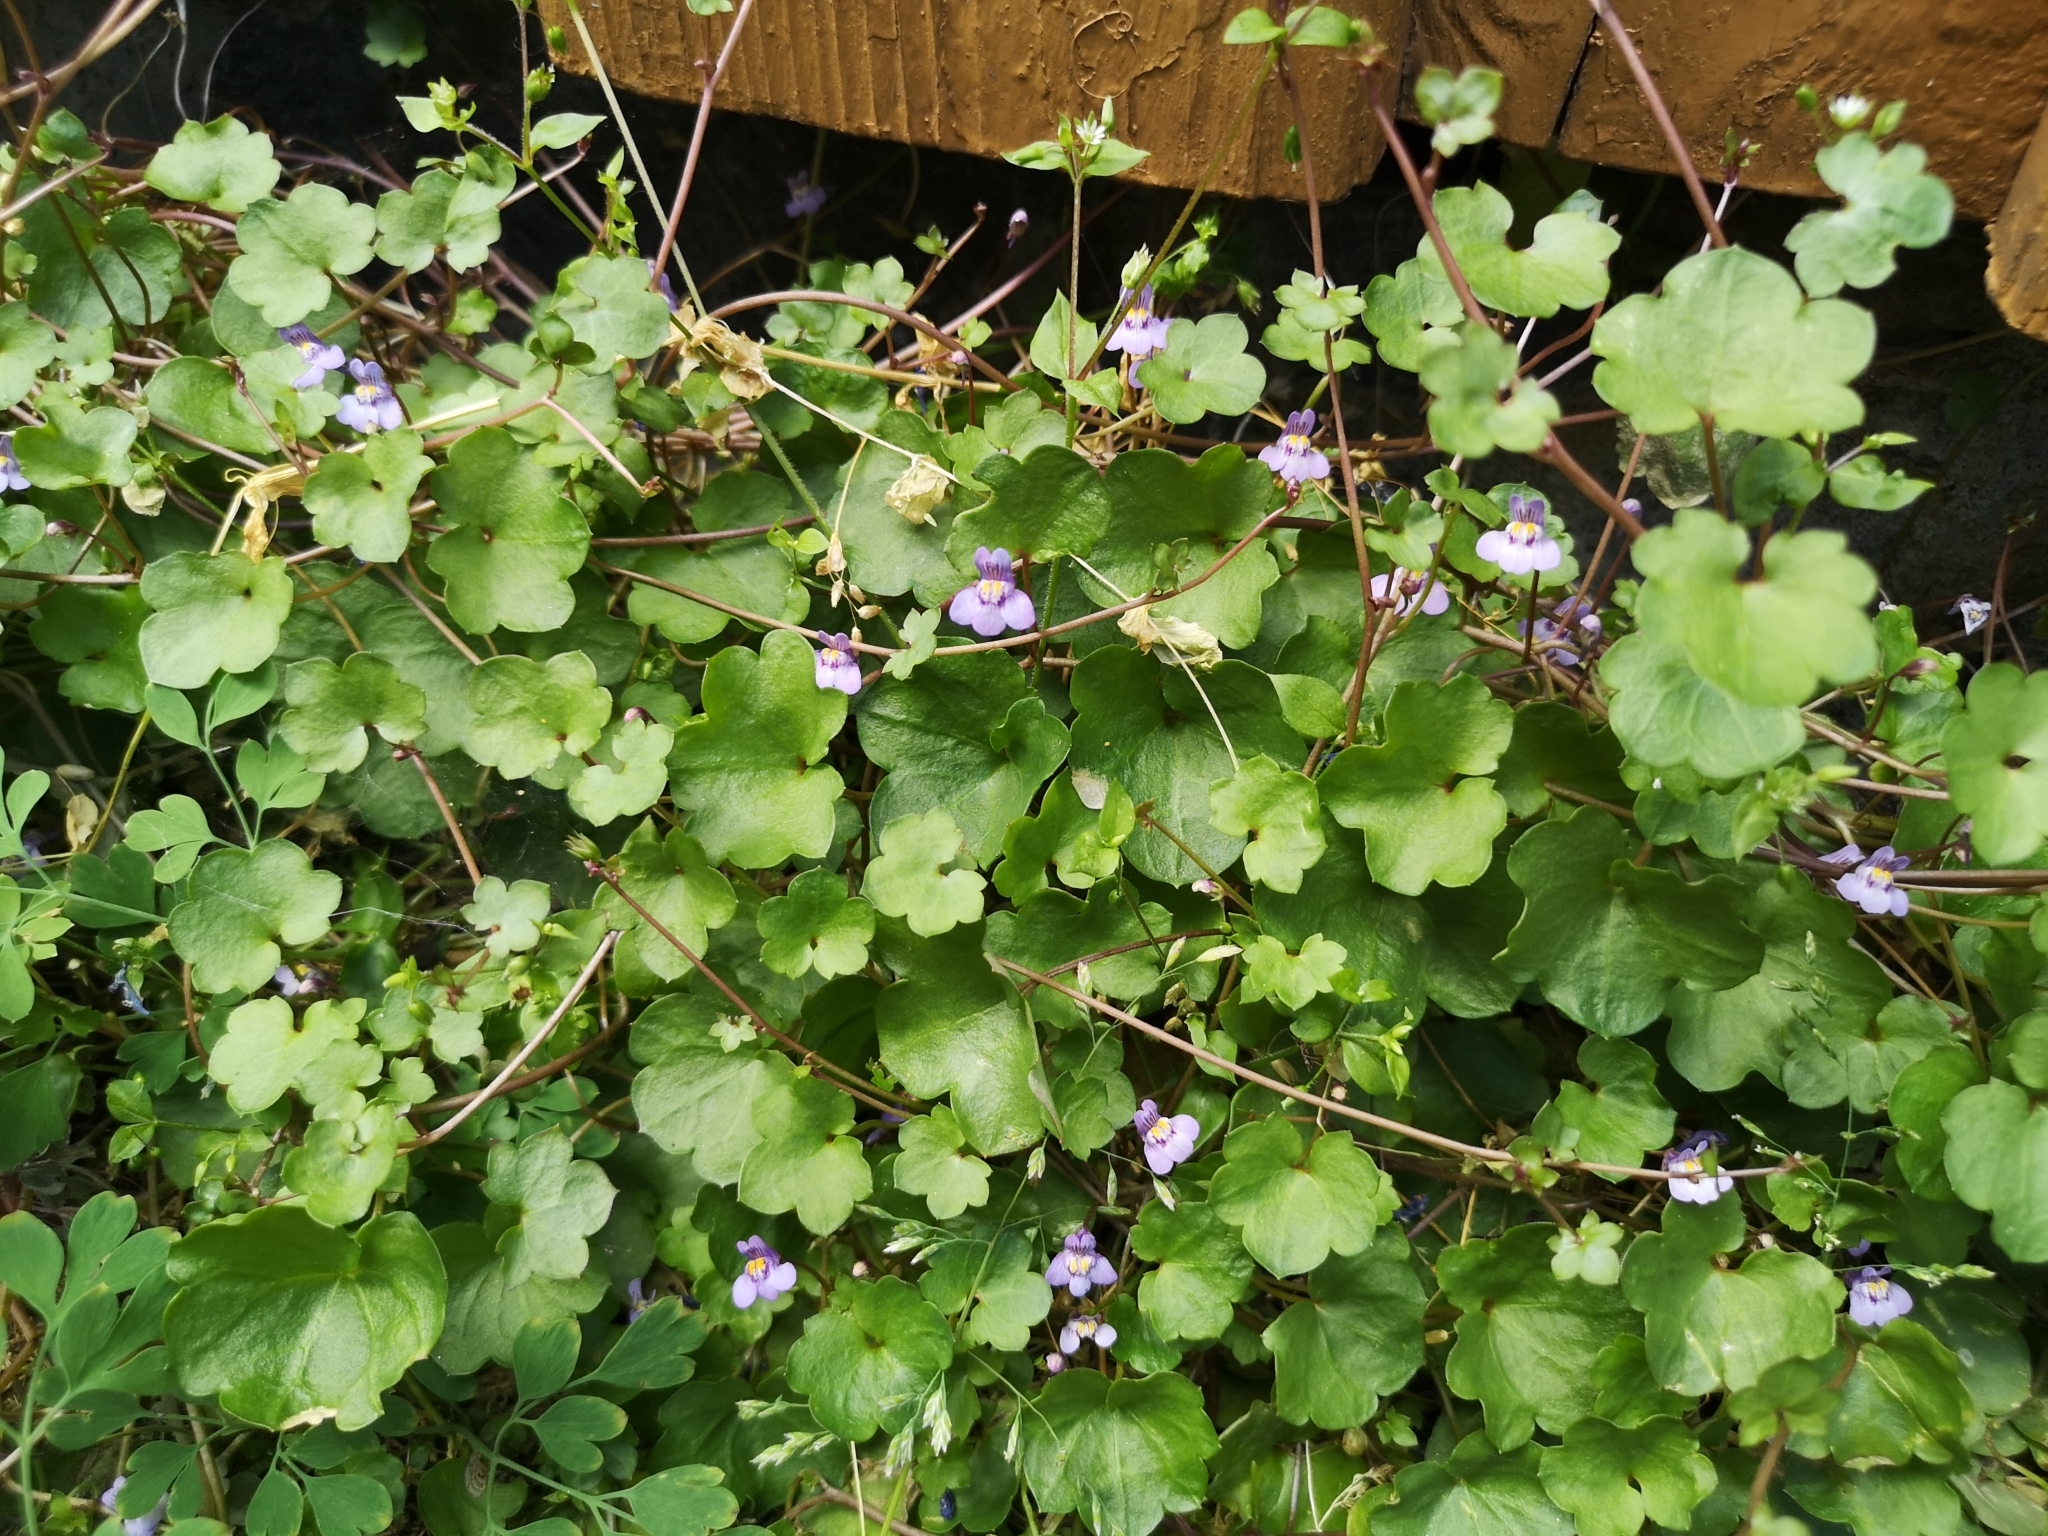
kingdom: Plantae
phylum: Tracheophyta
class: Magnoliopsida
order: Lamiales
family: Plantaginaceae
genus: Cymbalaria
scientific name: Cymbalaria muralis
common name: Ivy-leaved toadflax
